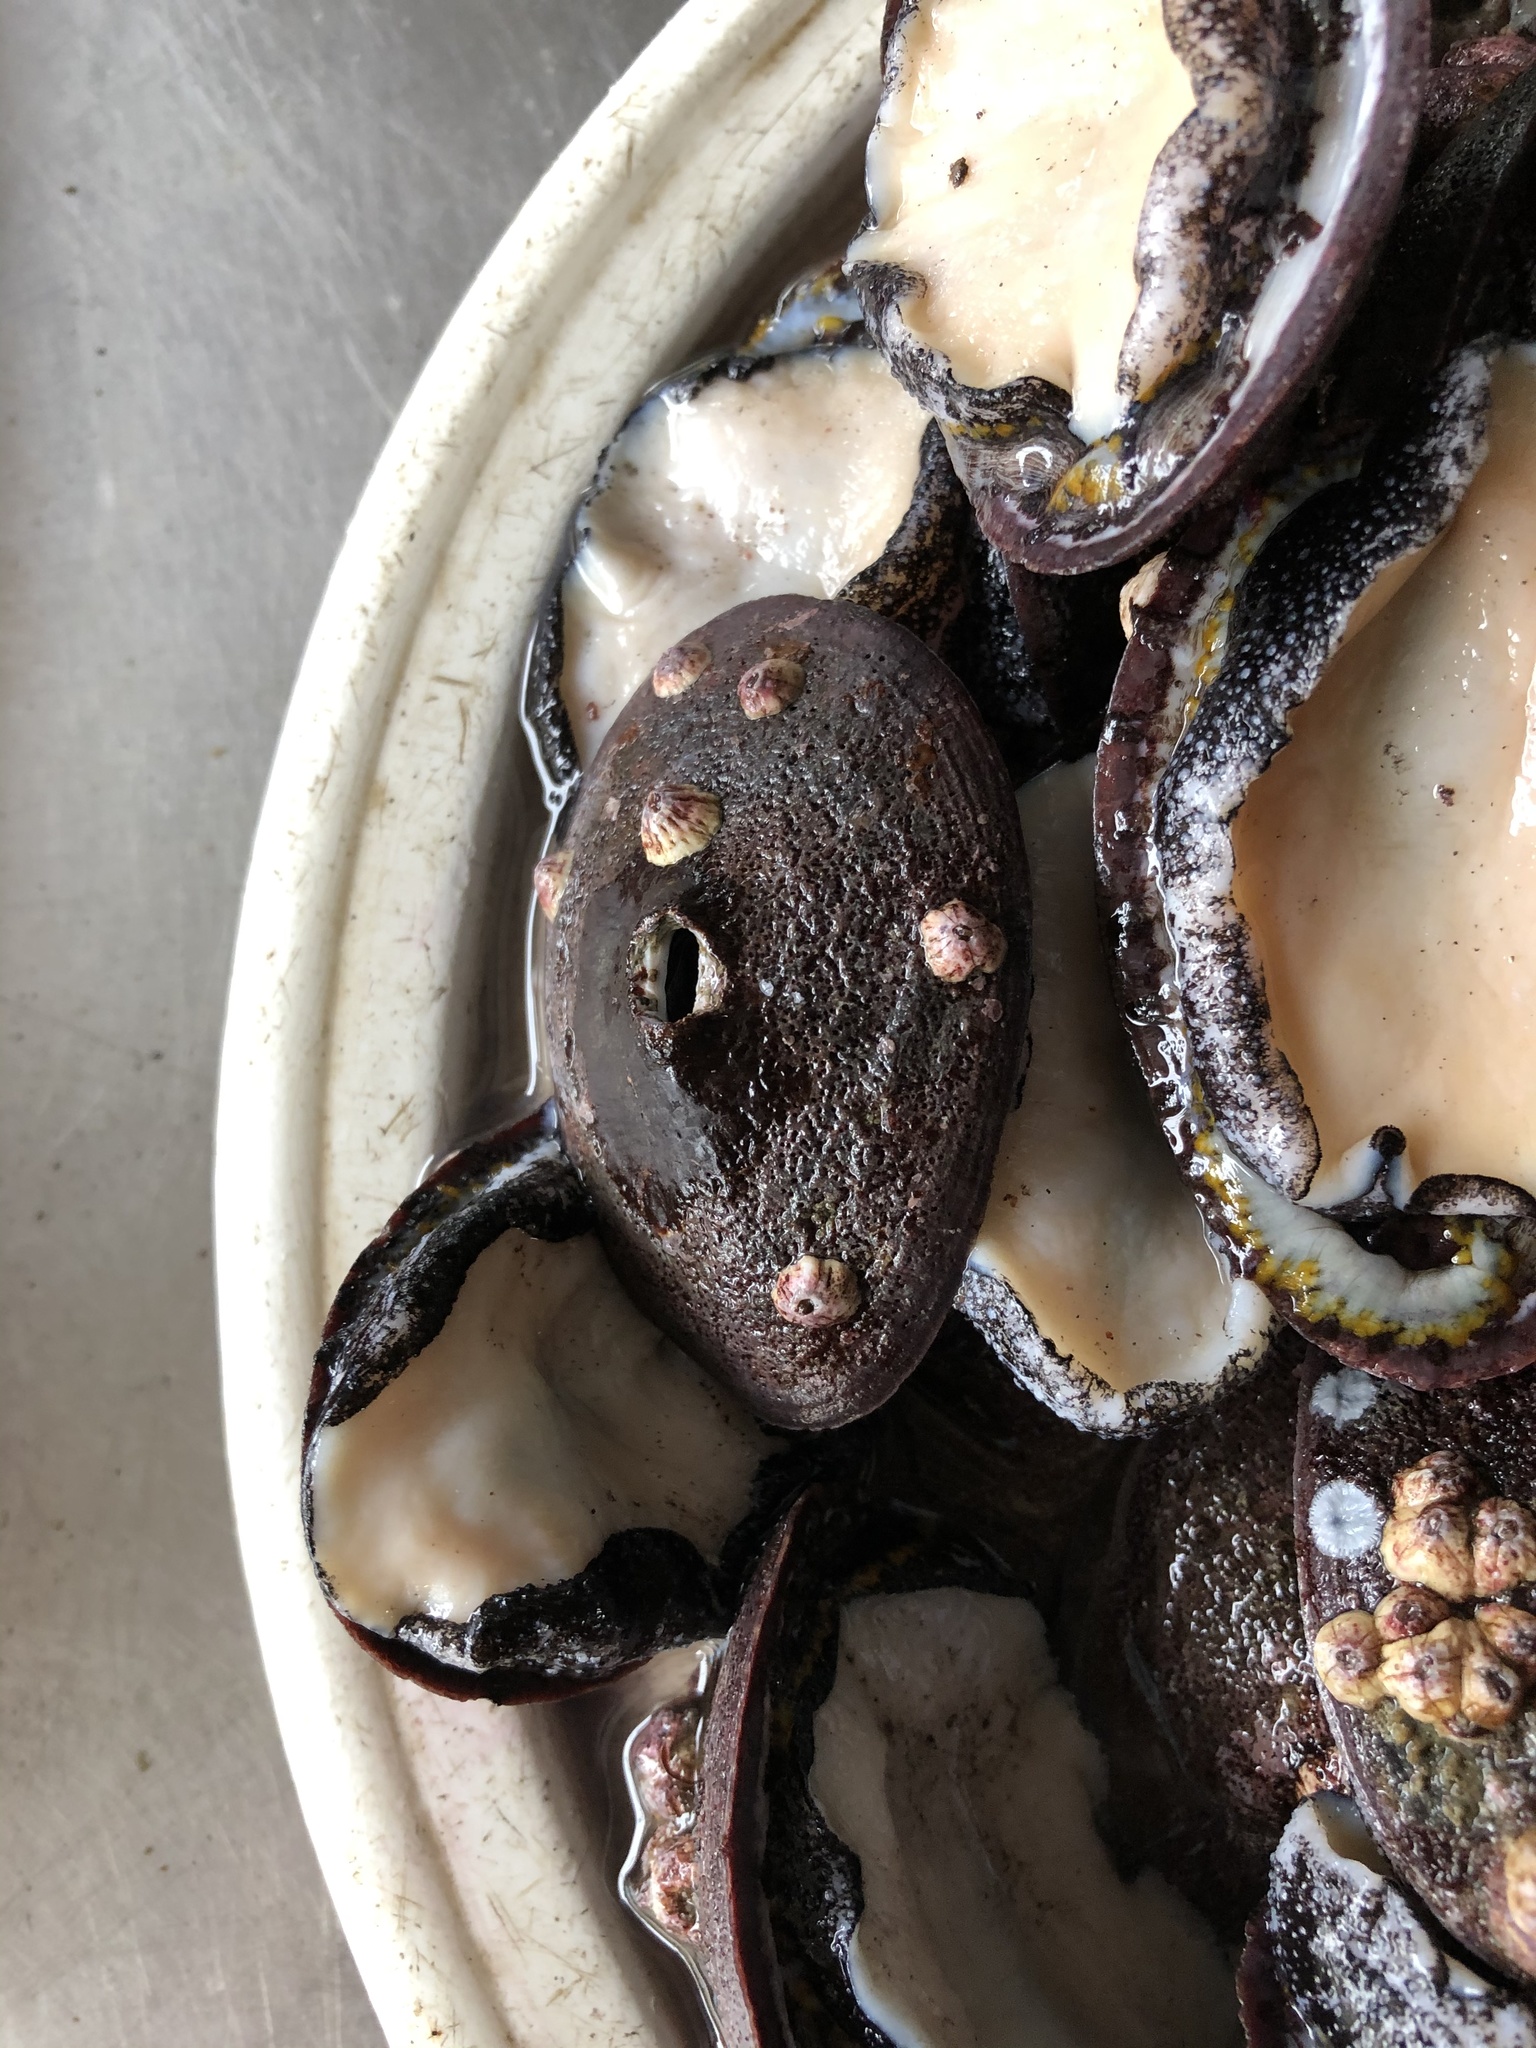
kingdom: Animalia
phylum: Mollusca
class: Gastropoda
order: Lepetellida
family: Fissurellidae
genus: Fissurella
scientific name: Fissurella latimarginata
